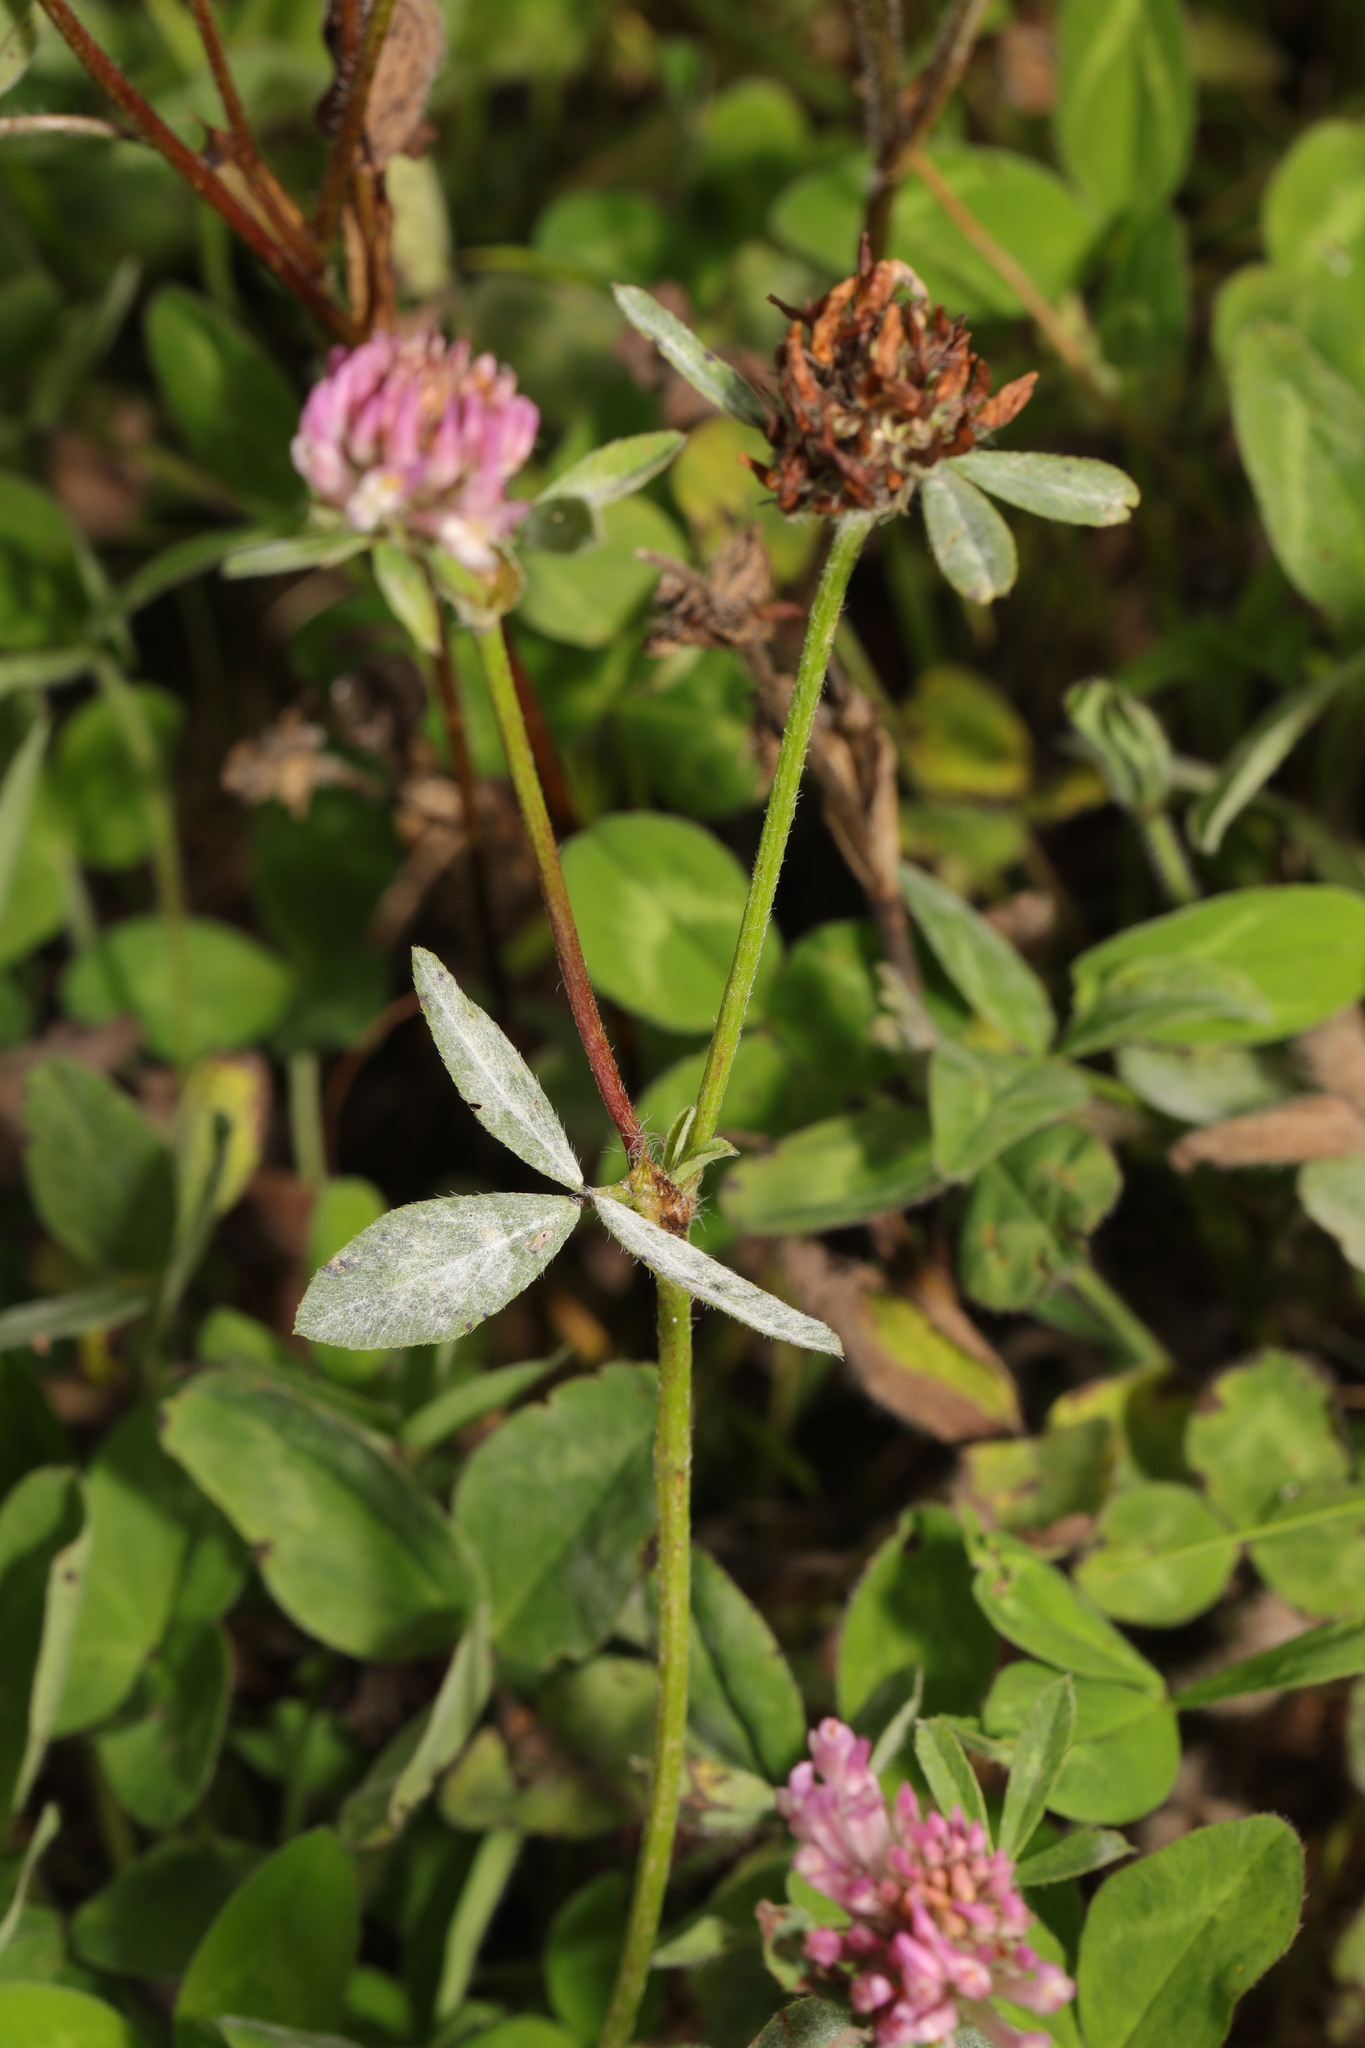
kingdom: Plantae
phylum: Tracheophyta
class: Magnoliopsida
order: Fabales
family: Fabaceae
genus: Trifolium
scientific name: Trifolium pratense
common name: Red clover
